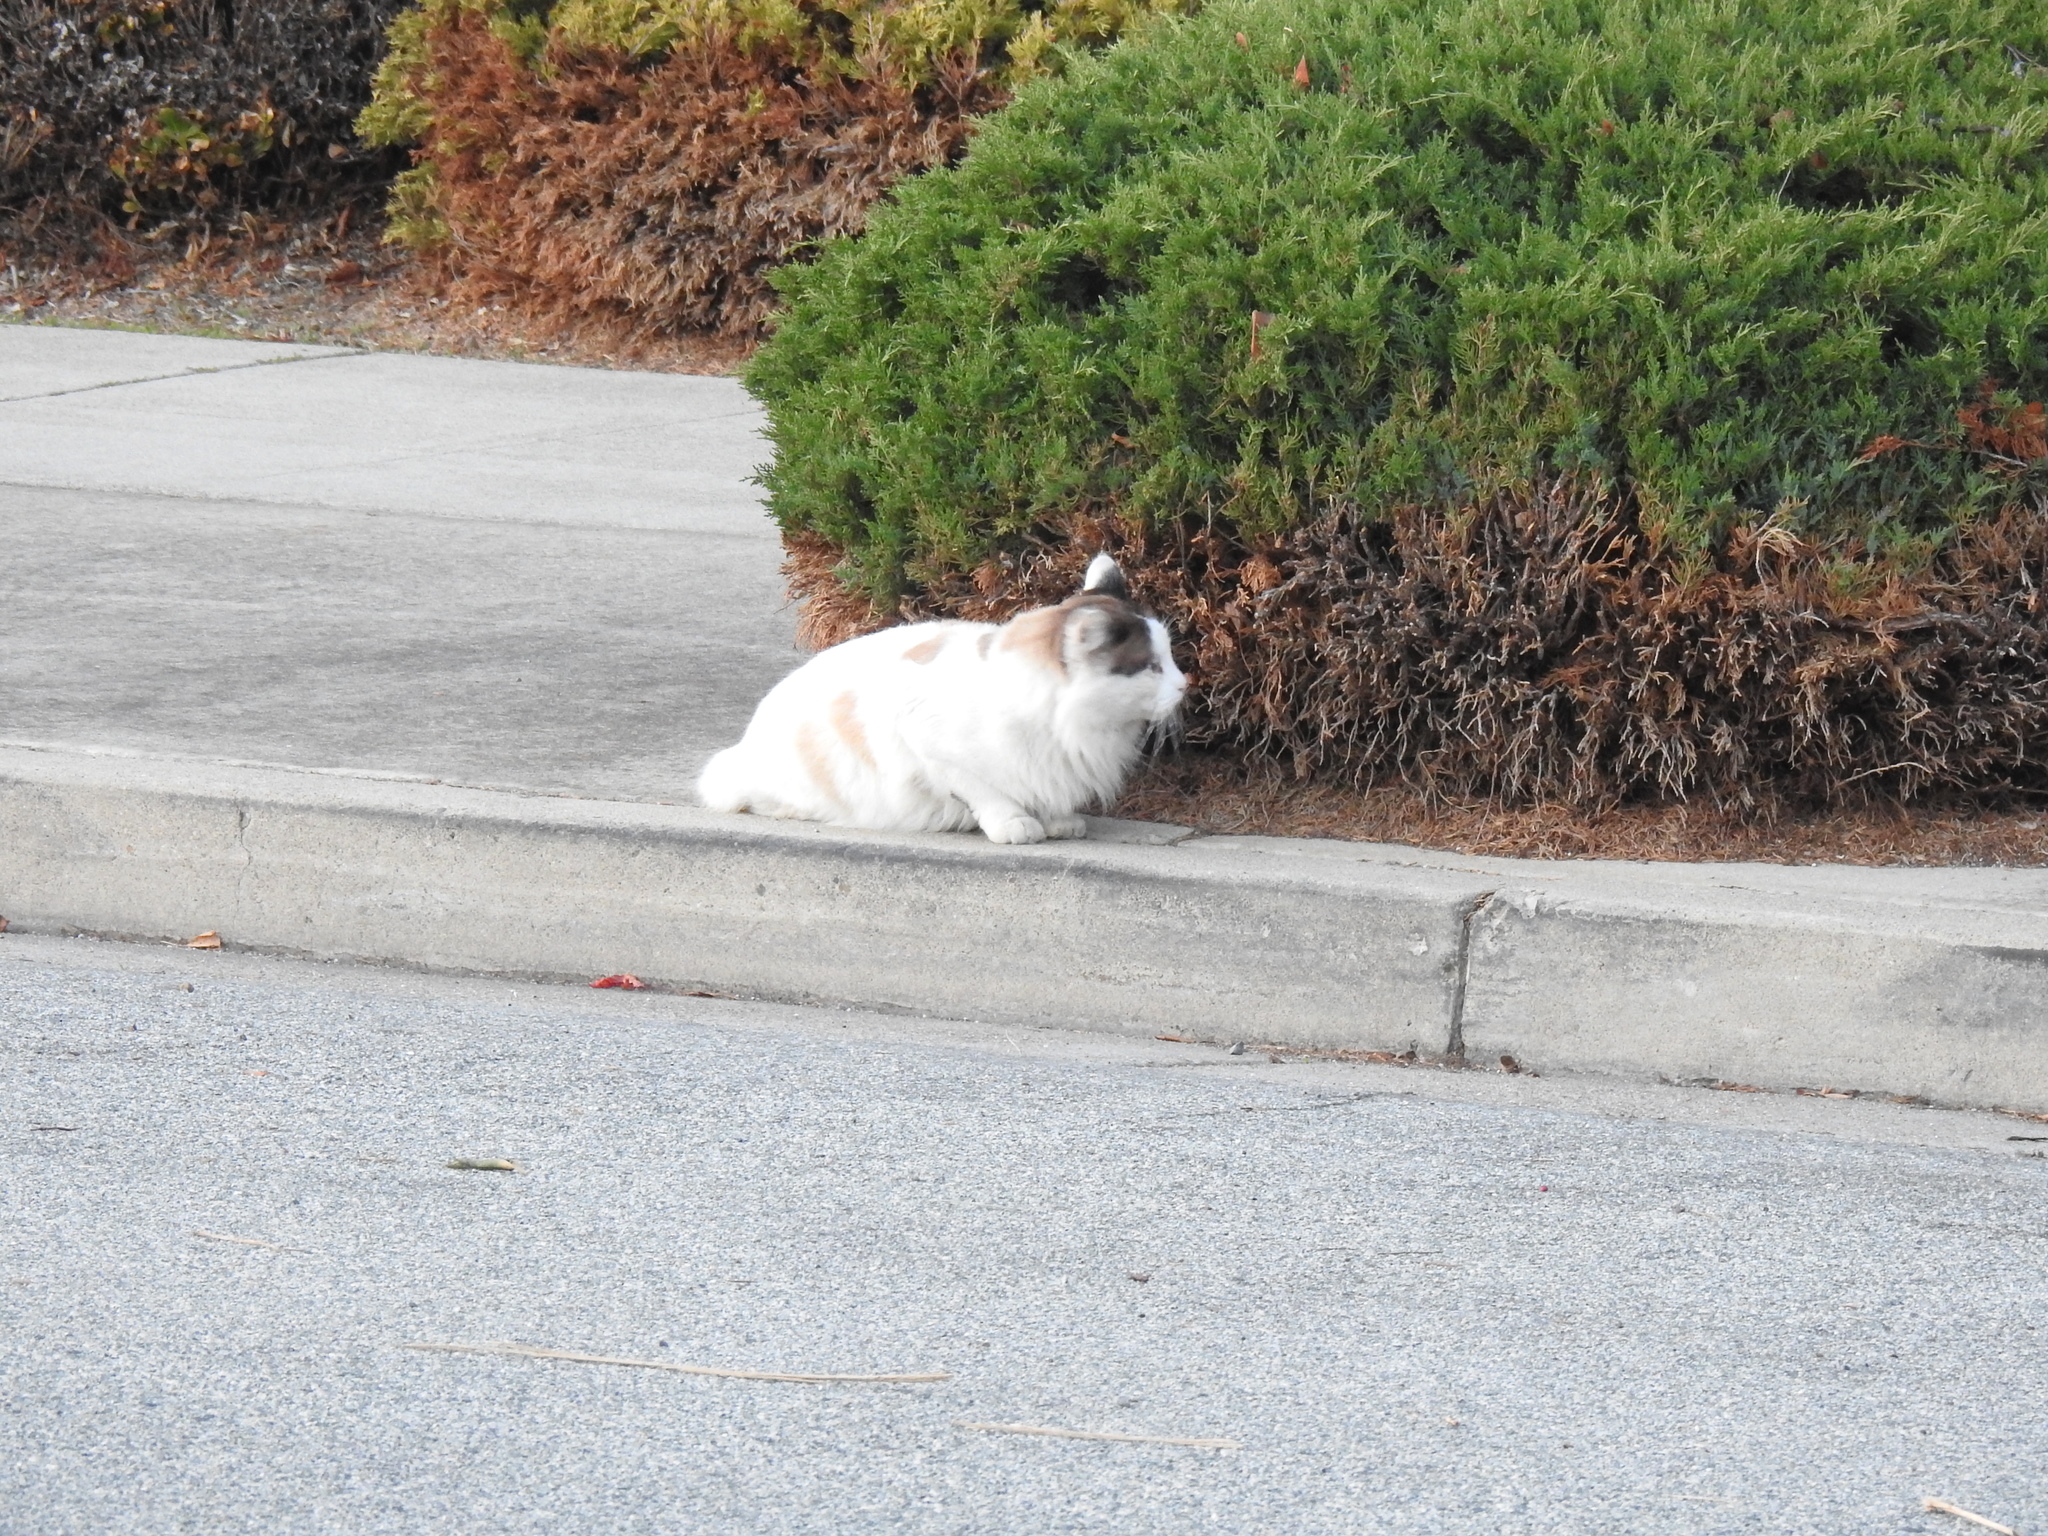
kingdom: Animalia
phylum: Chordata
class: Mammalia
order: Carnivora
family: Felidae
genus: Felis
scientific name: Felis catus
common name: Domestic cat
